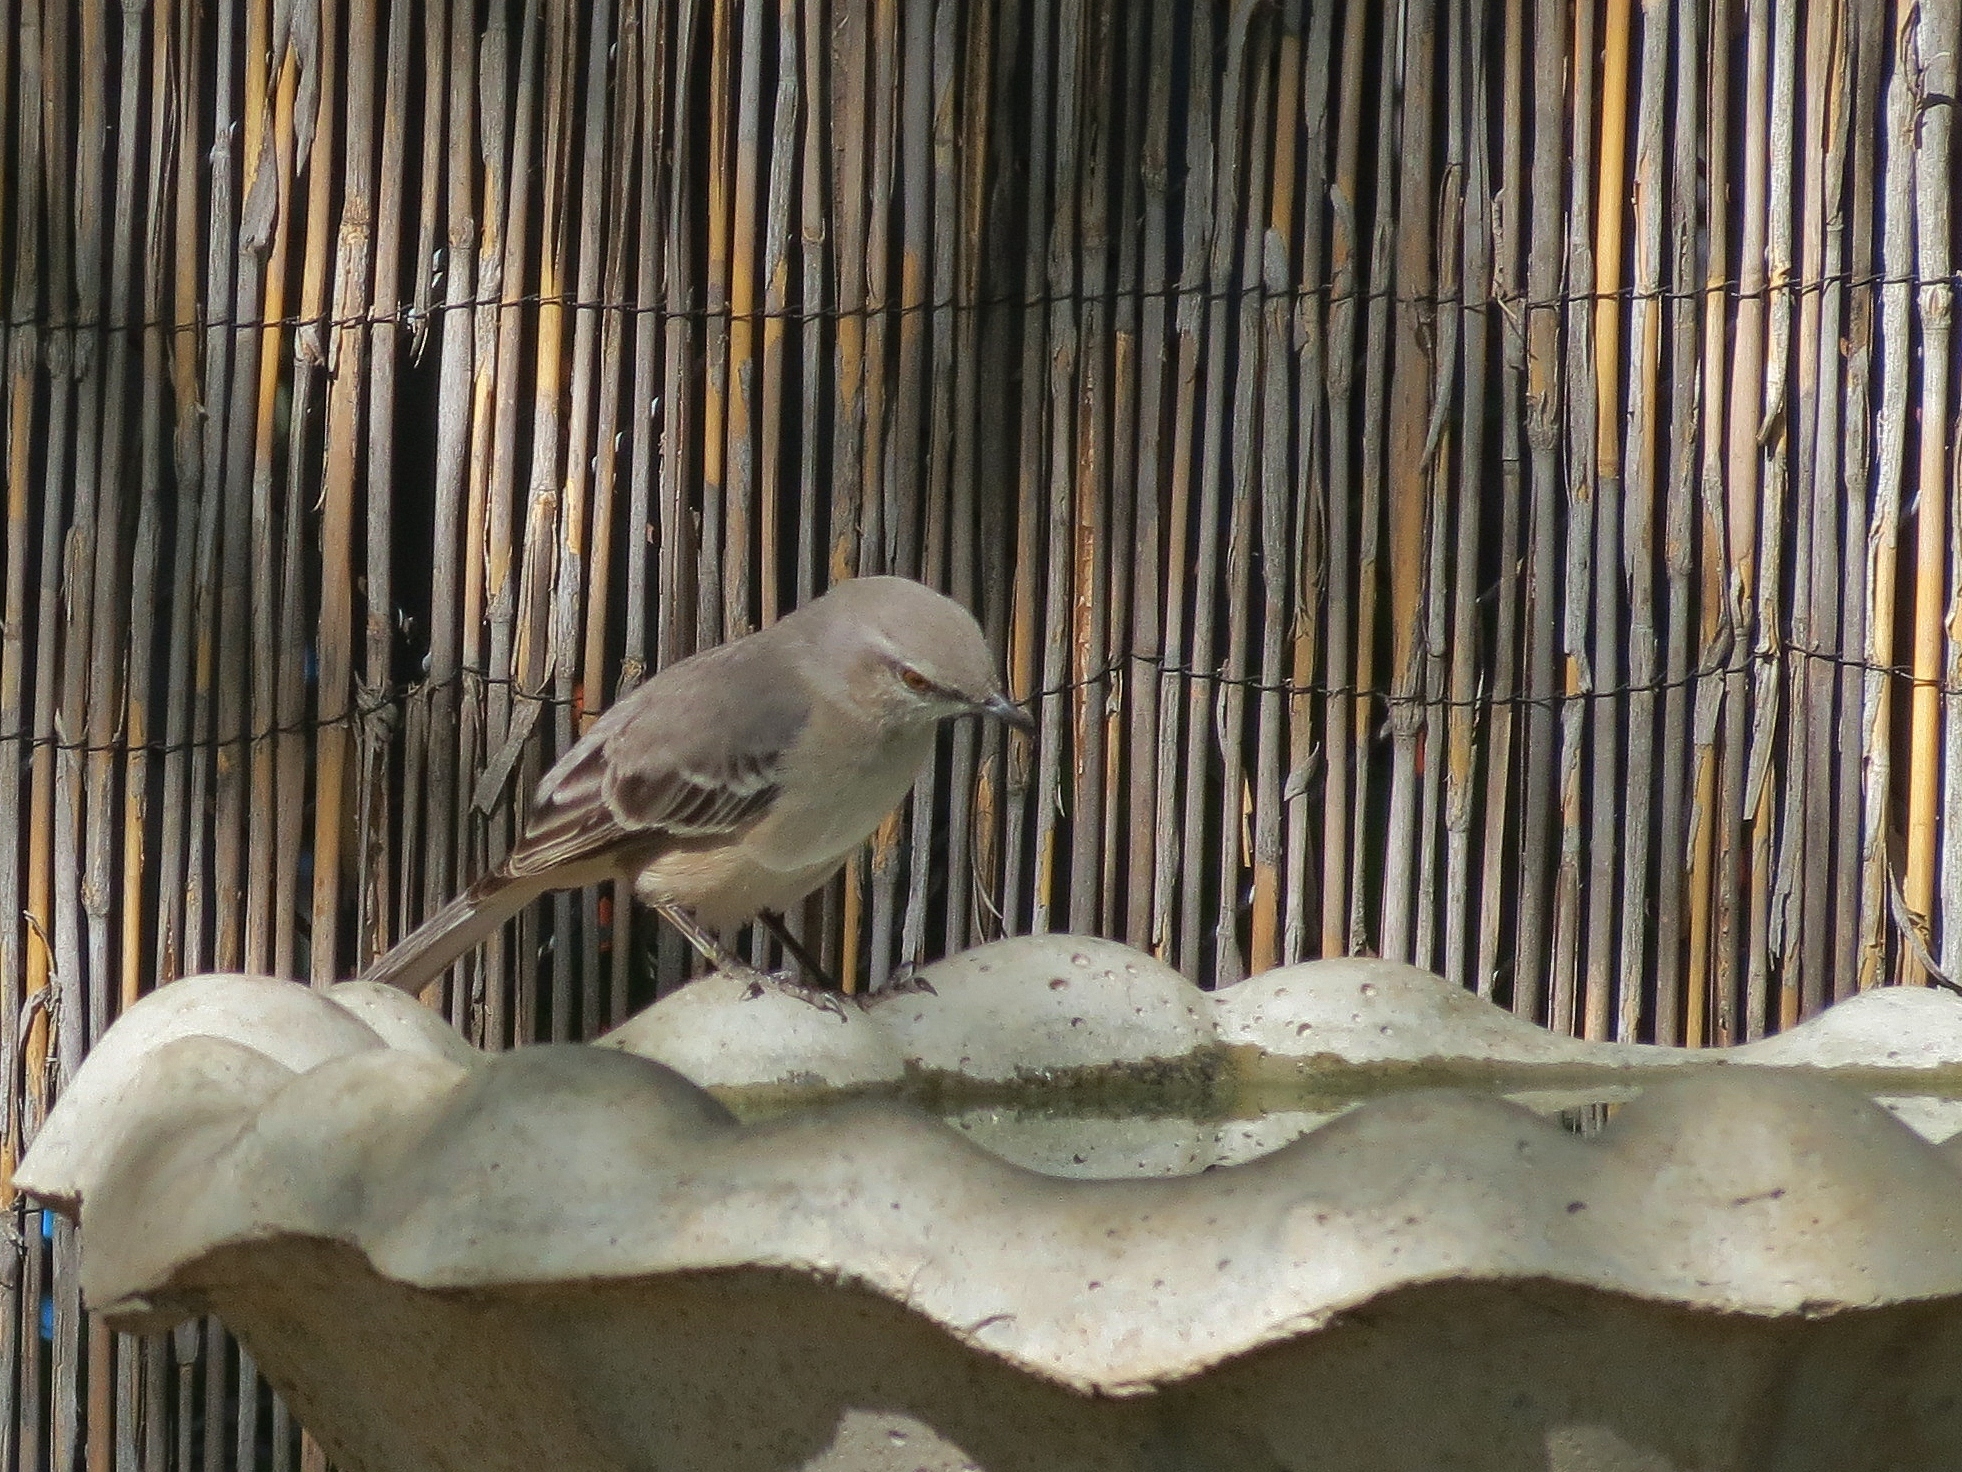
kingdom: Animalia
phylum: Chordata
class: Aves
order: Passeriformes
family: Mimidae
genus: Mimus
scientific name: Mimus polyglottos
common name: Northern mockingbird
